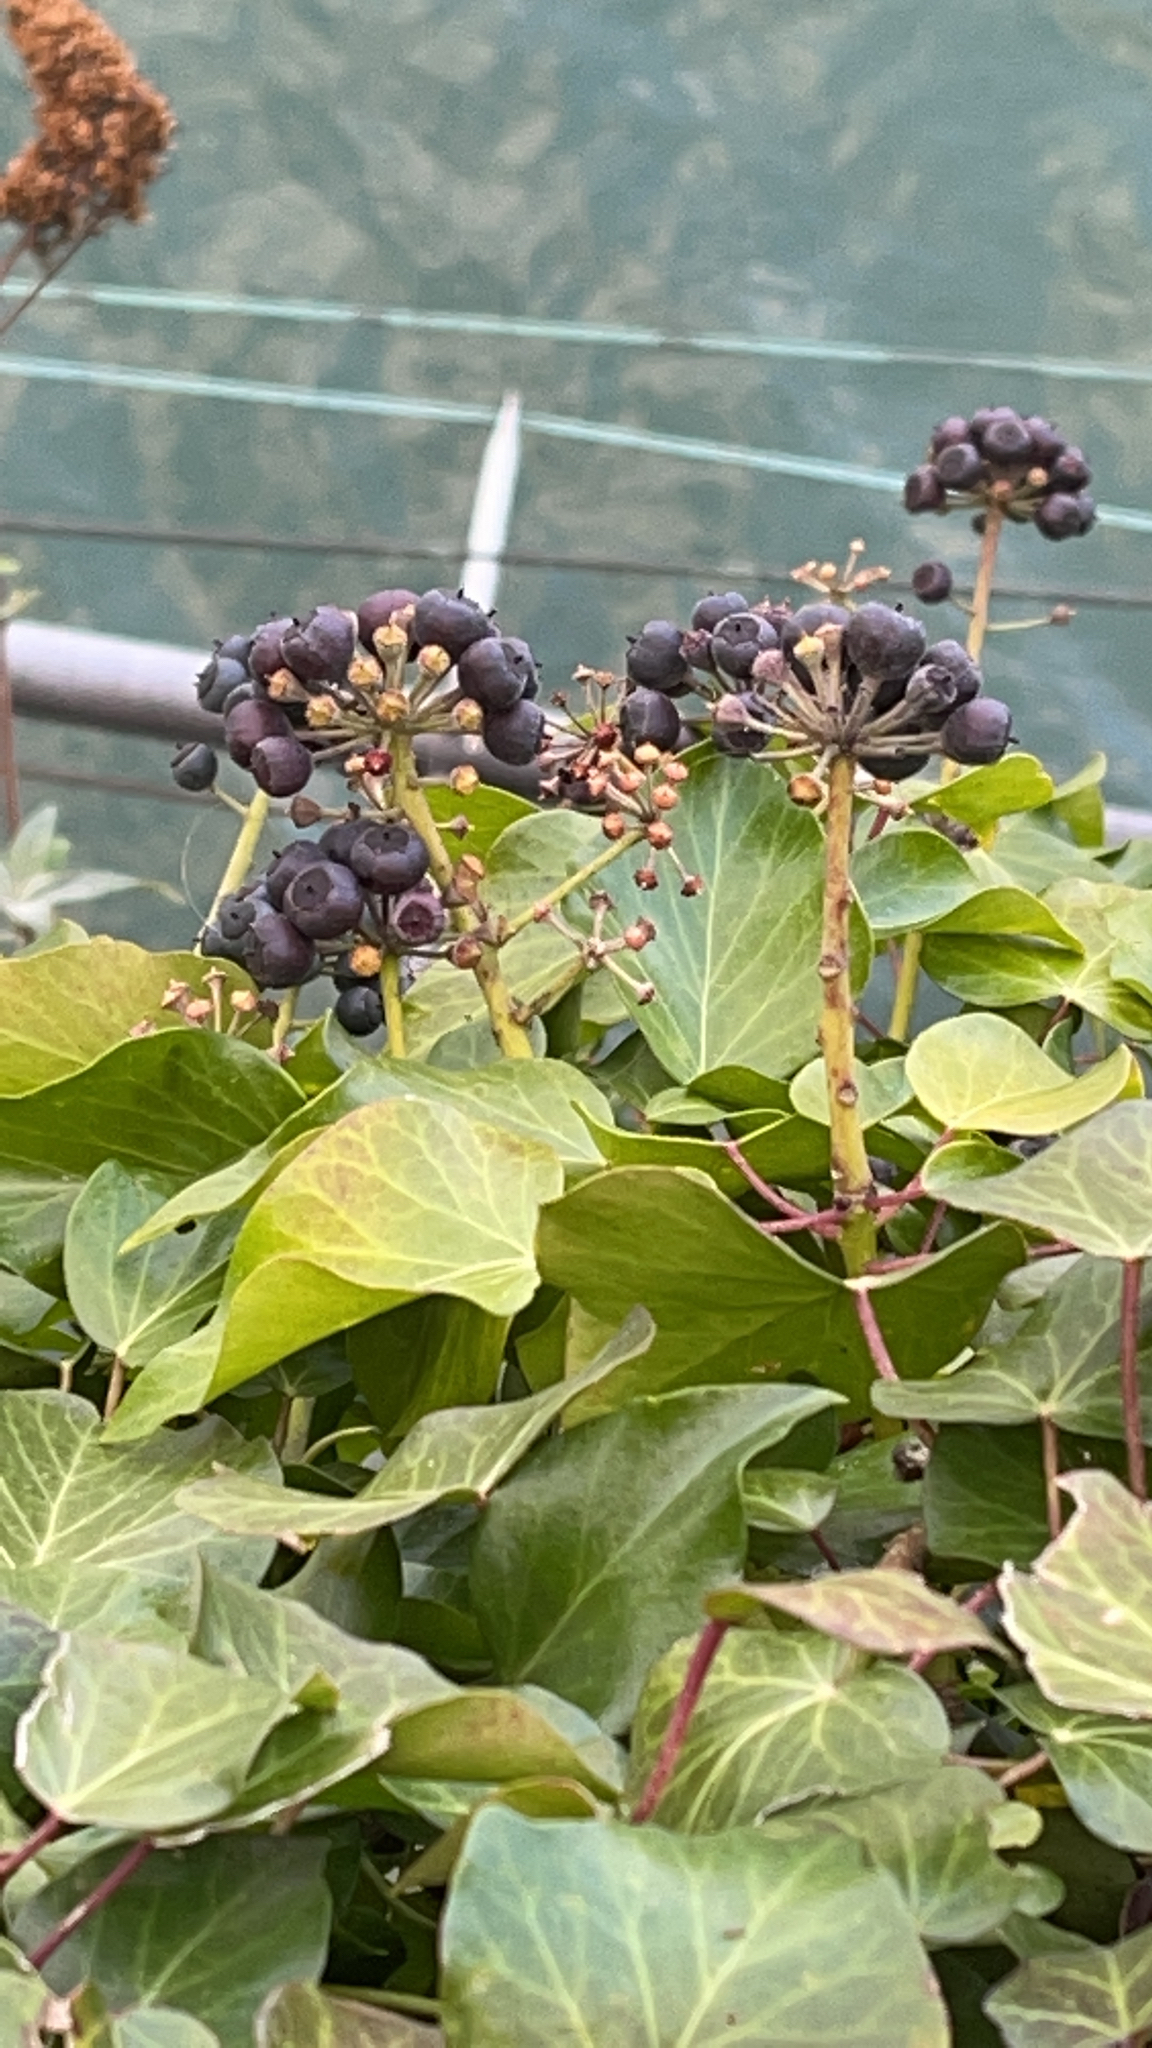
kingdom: Plantae
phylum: Tracheophyta
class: Magnoliopsida
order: Apiales
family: Araliaceae
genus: Hedera
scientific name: Hedera helix
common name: Ivy
